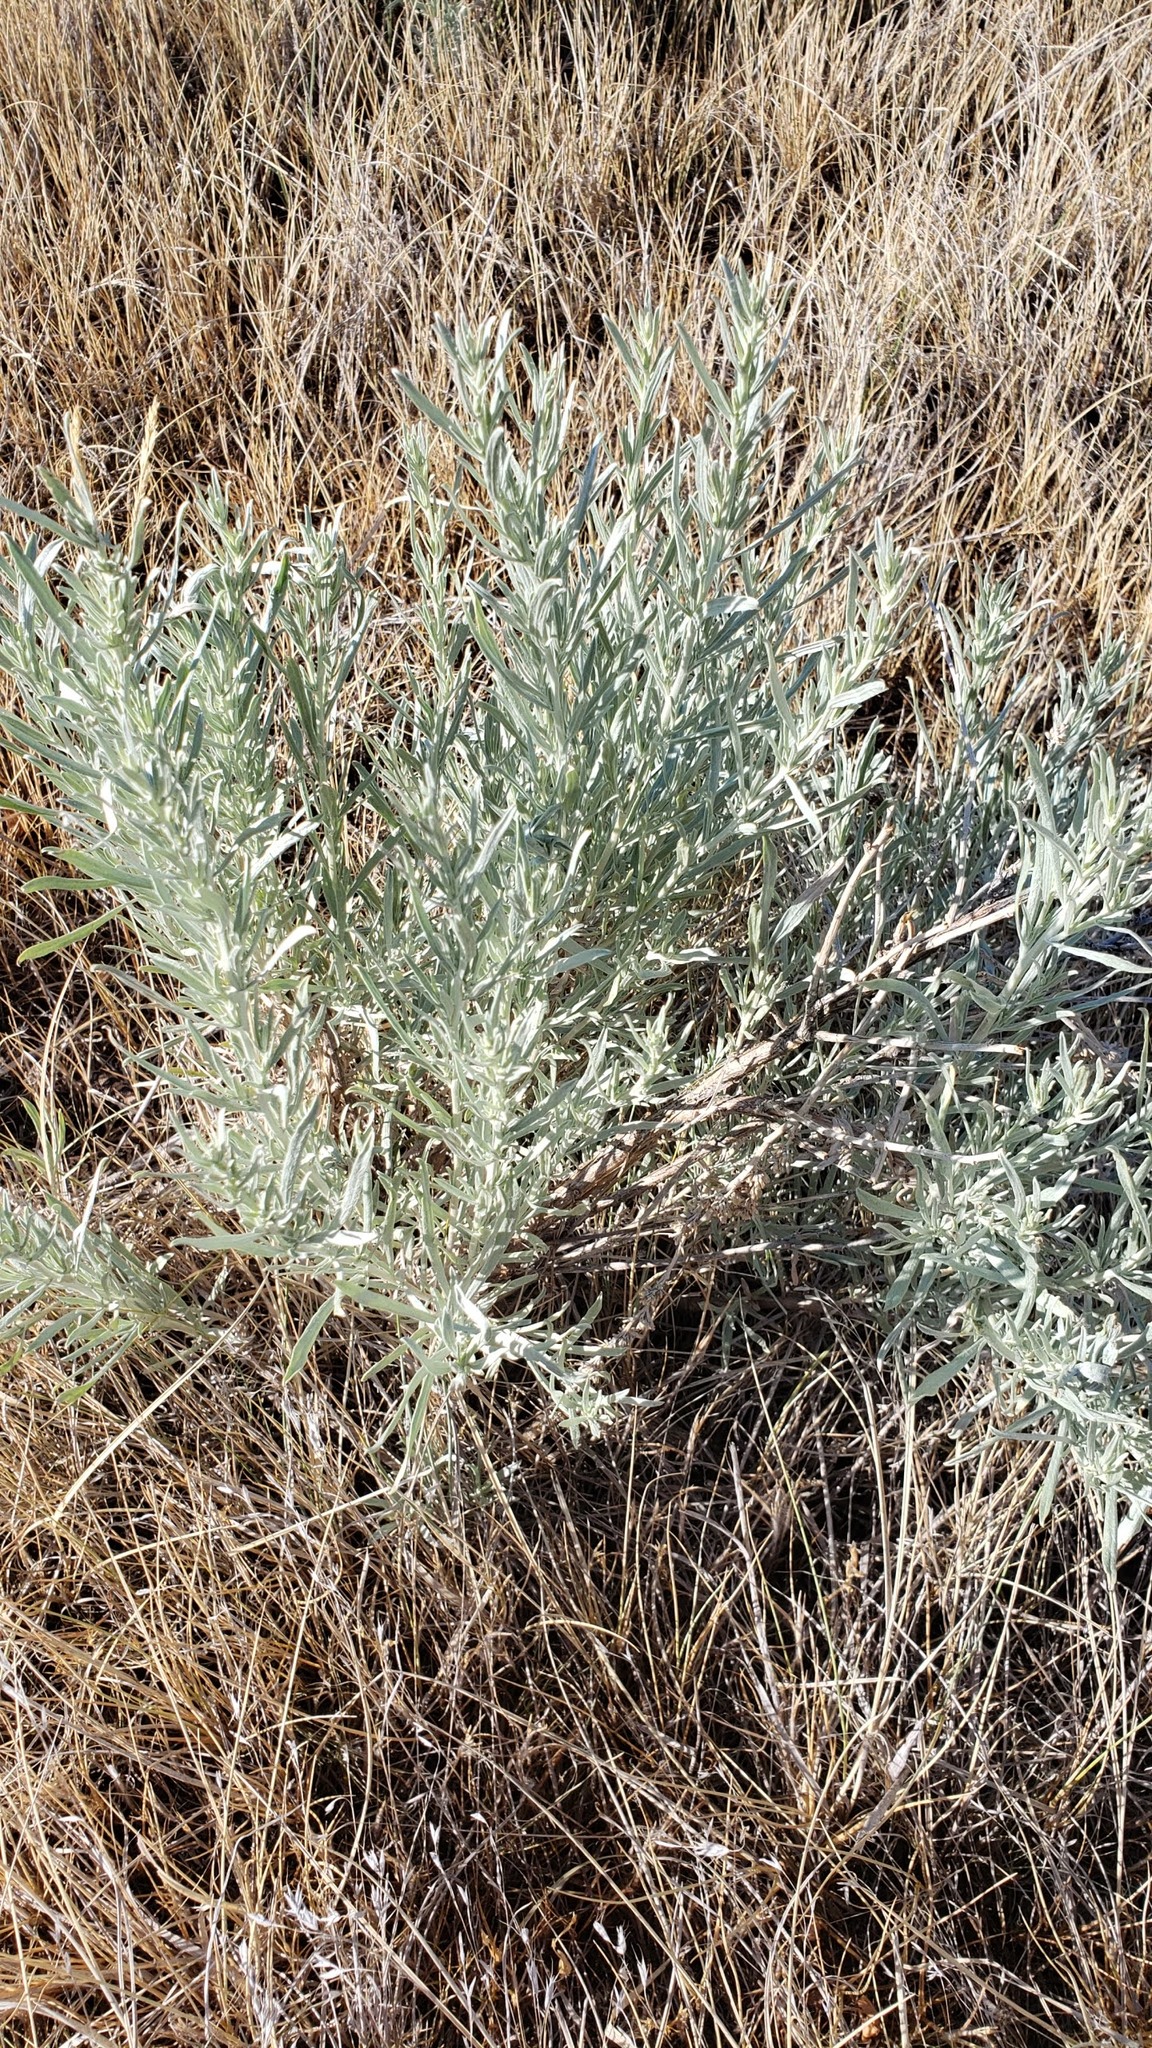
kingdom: Plantae
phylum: Tracheophyta
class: Magnoliopsida
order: Asterales
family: Asteraceae
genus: Artemisia
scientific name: Artemisia cana
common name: Silver sagebrush
